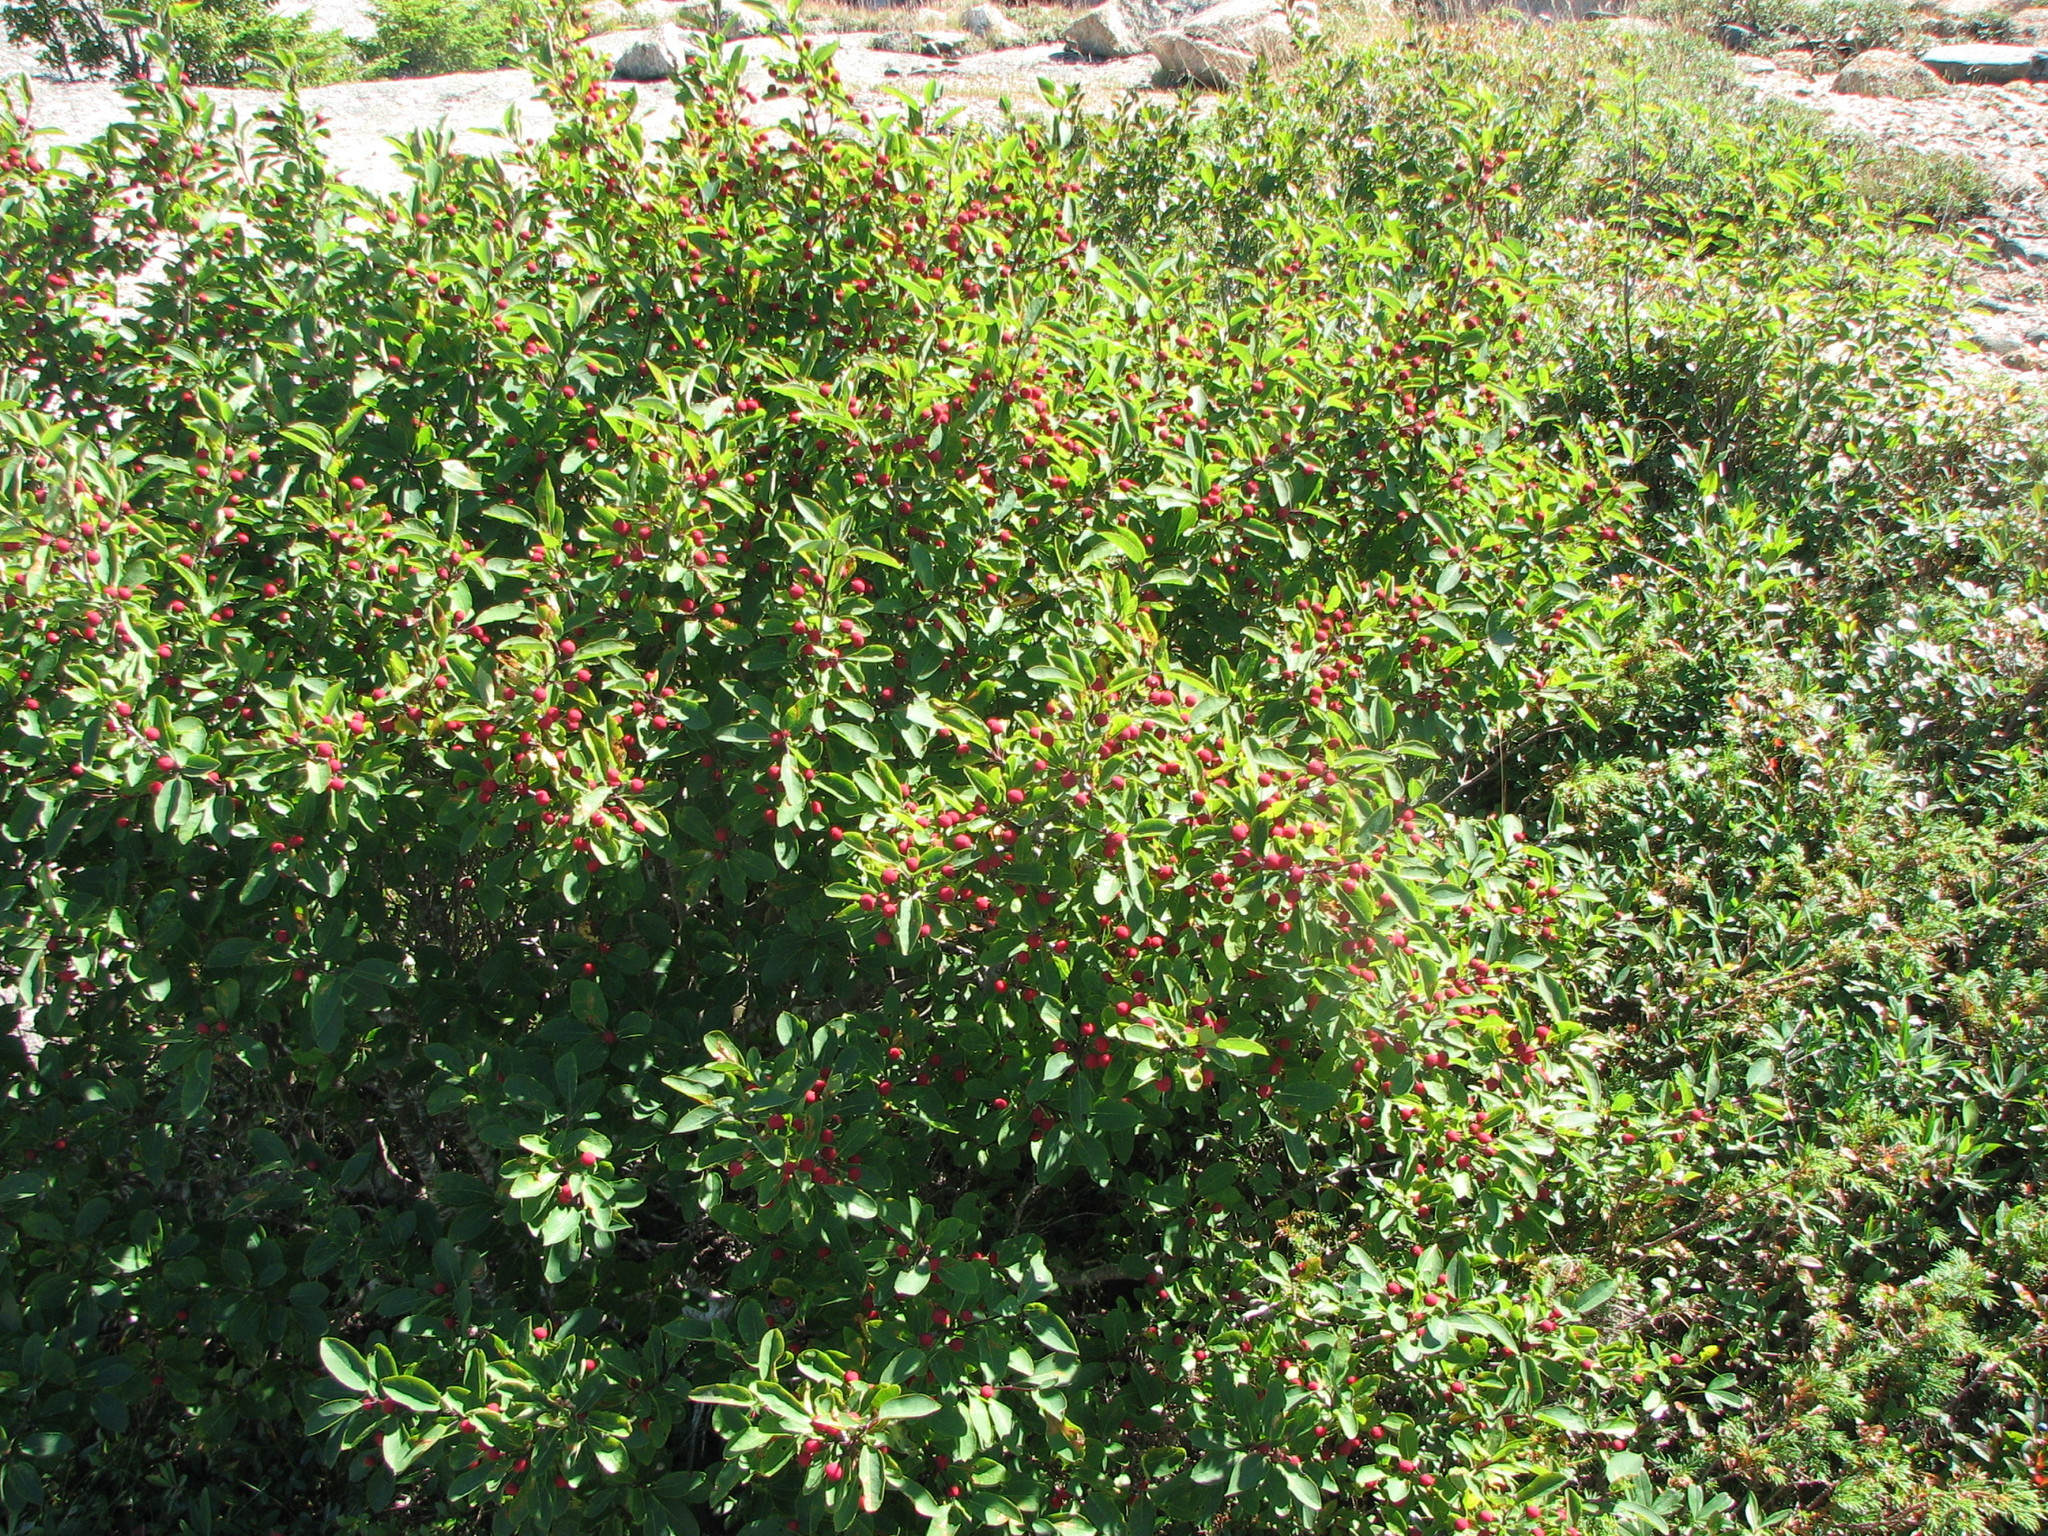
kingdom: Plantae
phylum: Tracheophyta
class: Magnoliopsida
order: Aquifoliales
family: Aquifoliaceae
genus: Ilex
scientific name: Ilex mucronata
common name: Catberry
